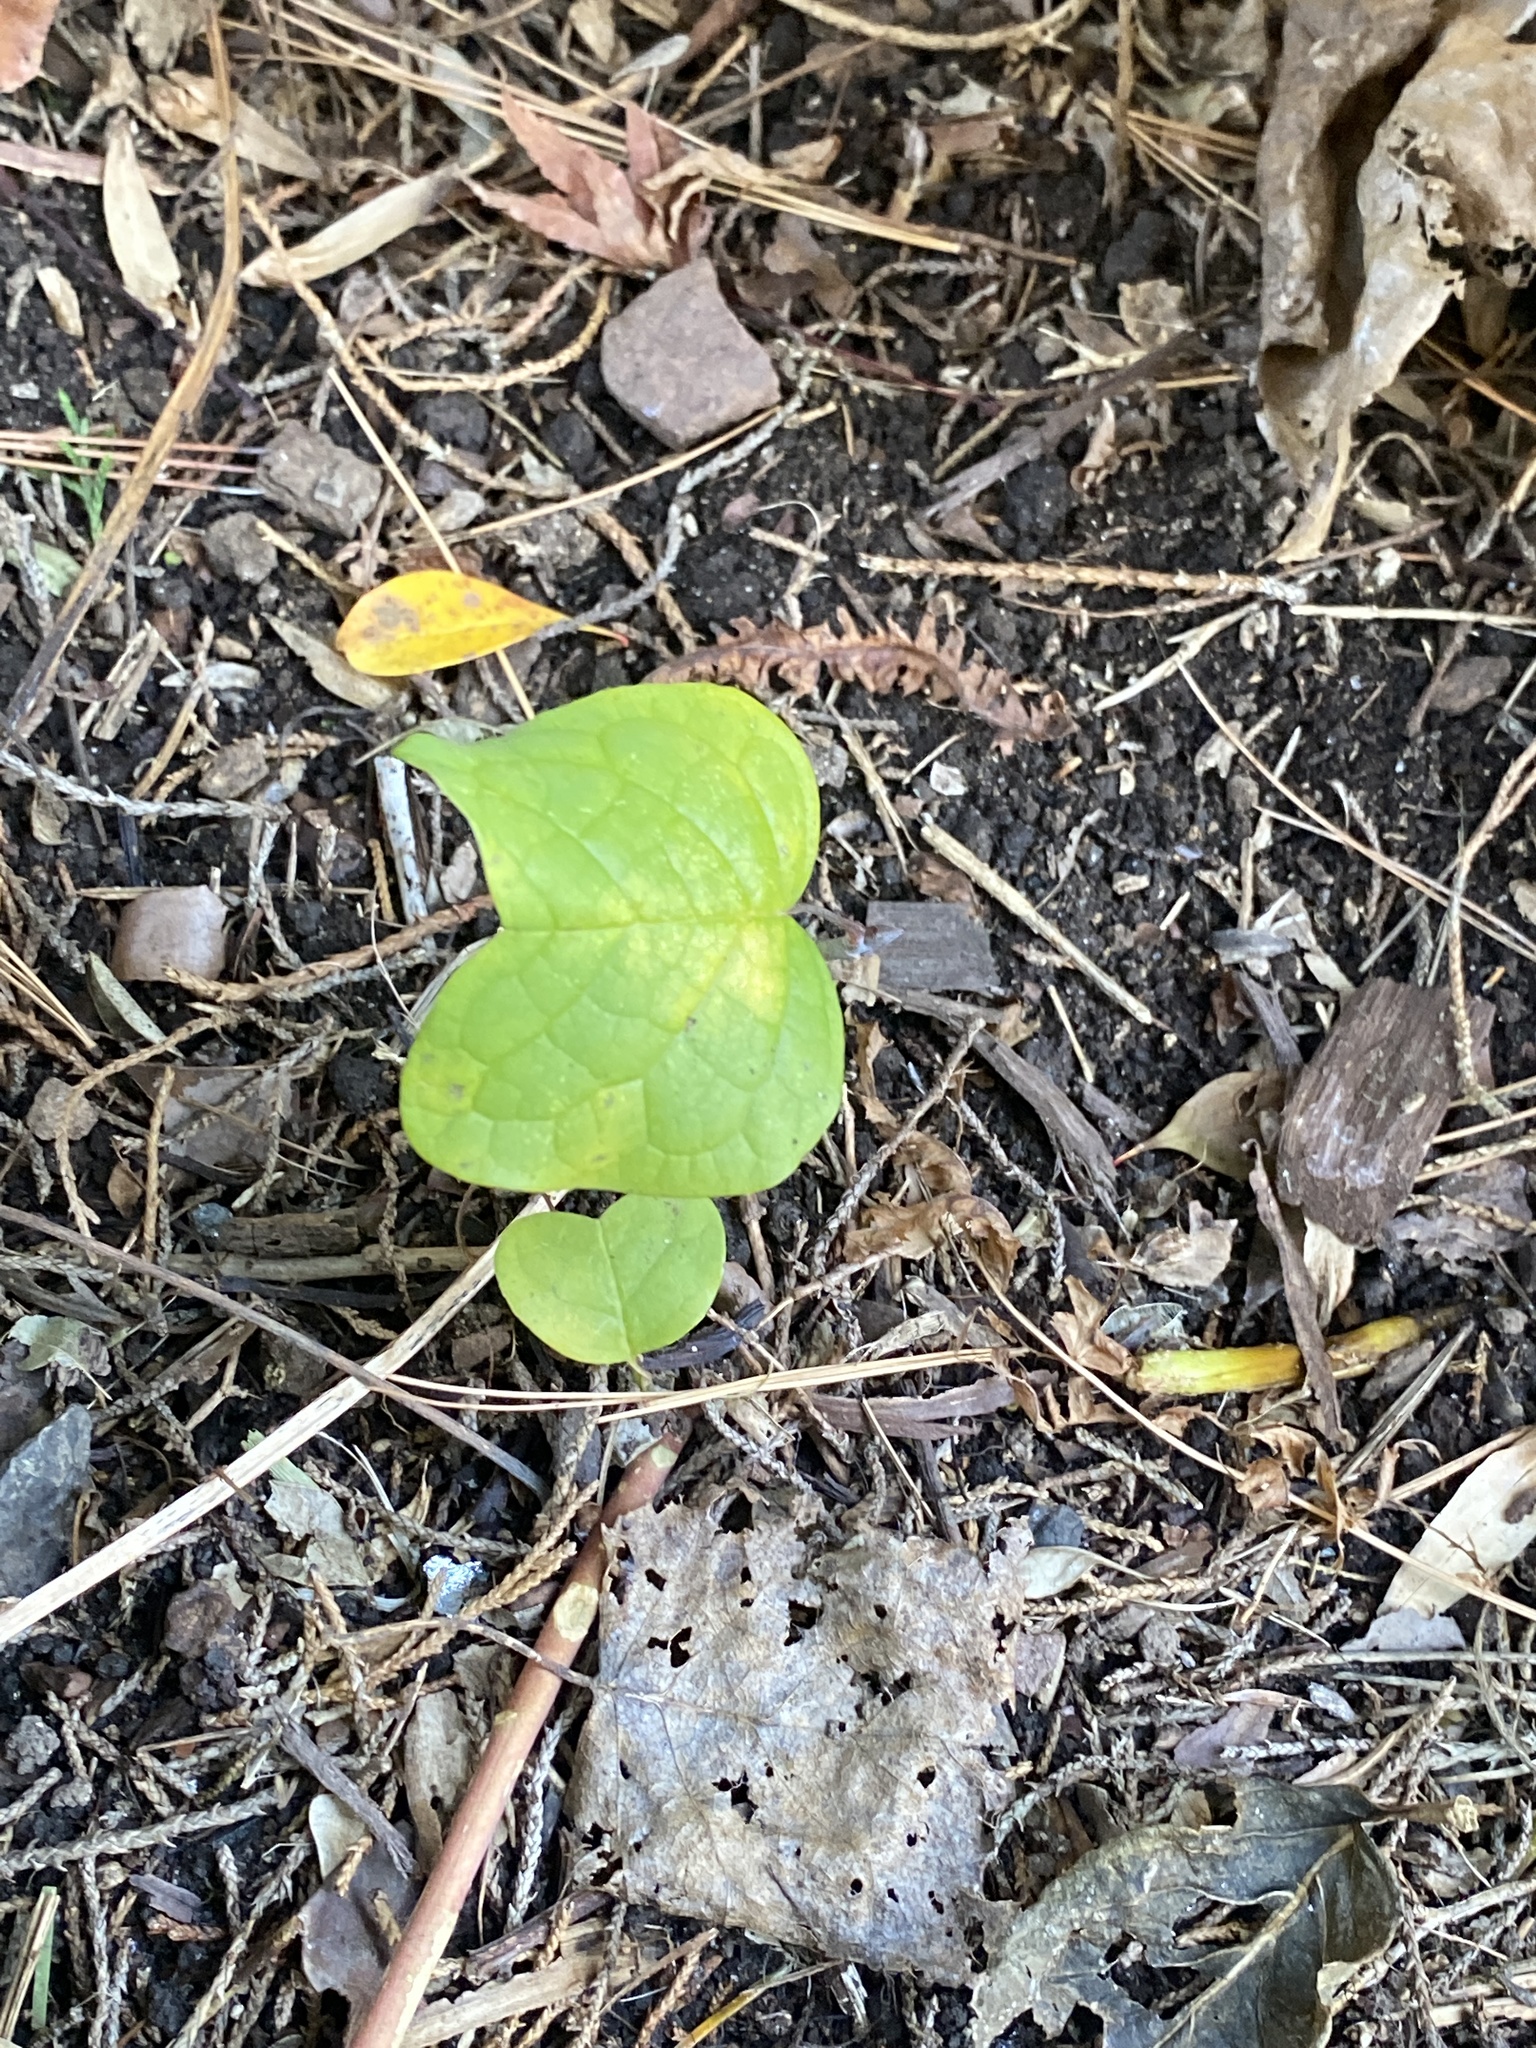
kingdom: Plantae
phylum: Tracheophyta
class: Magnoliopsida
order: Magnoliales
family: Magnoliaceae
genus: Liriodendron
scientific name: Liriodendron tulipifera
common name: Tulip tree
